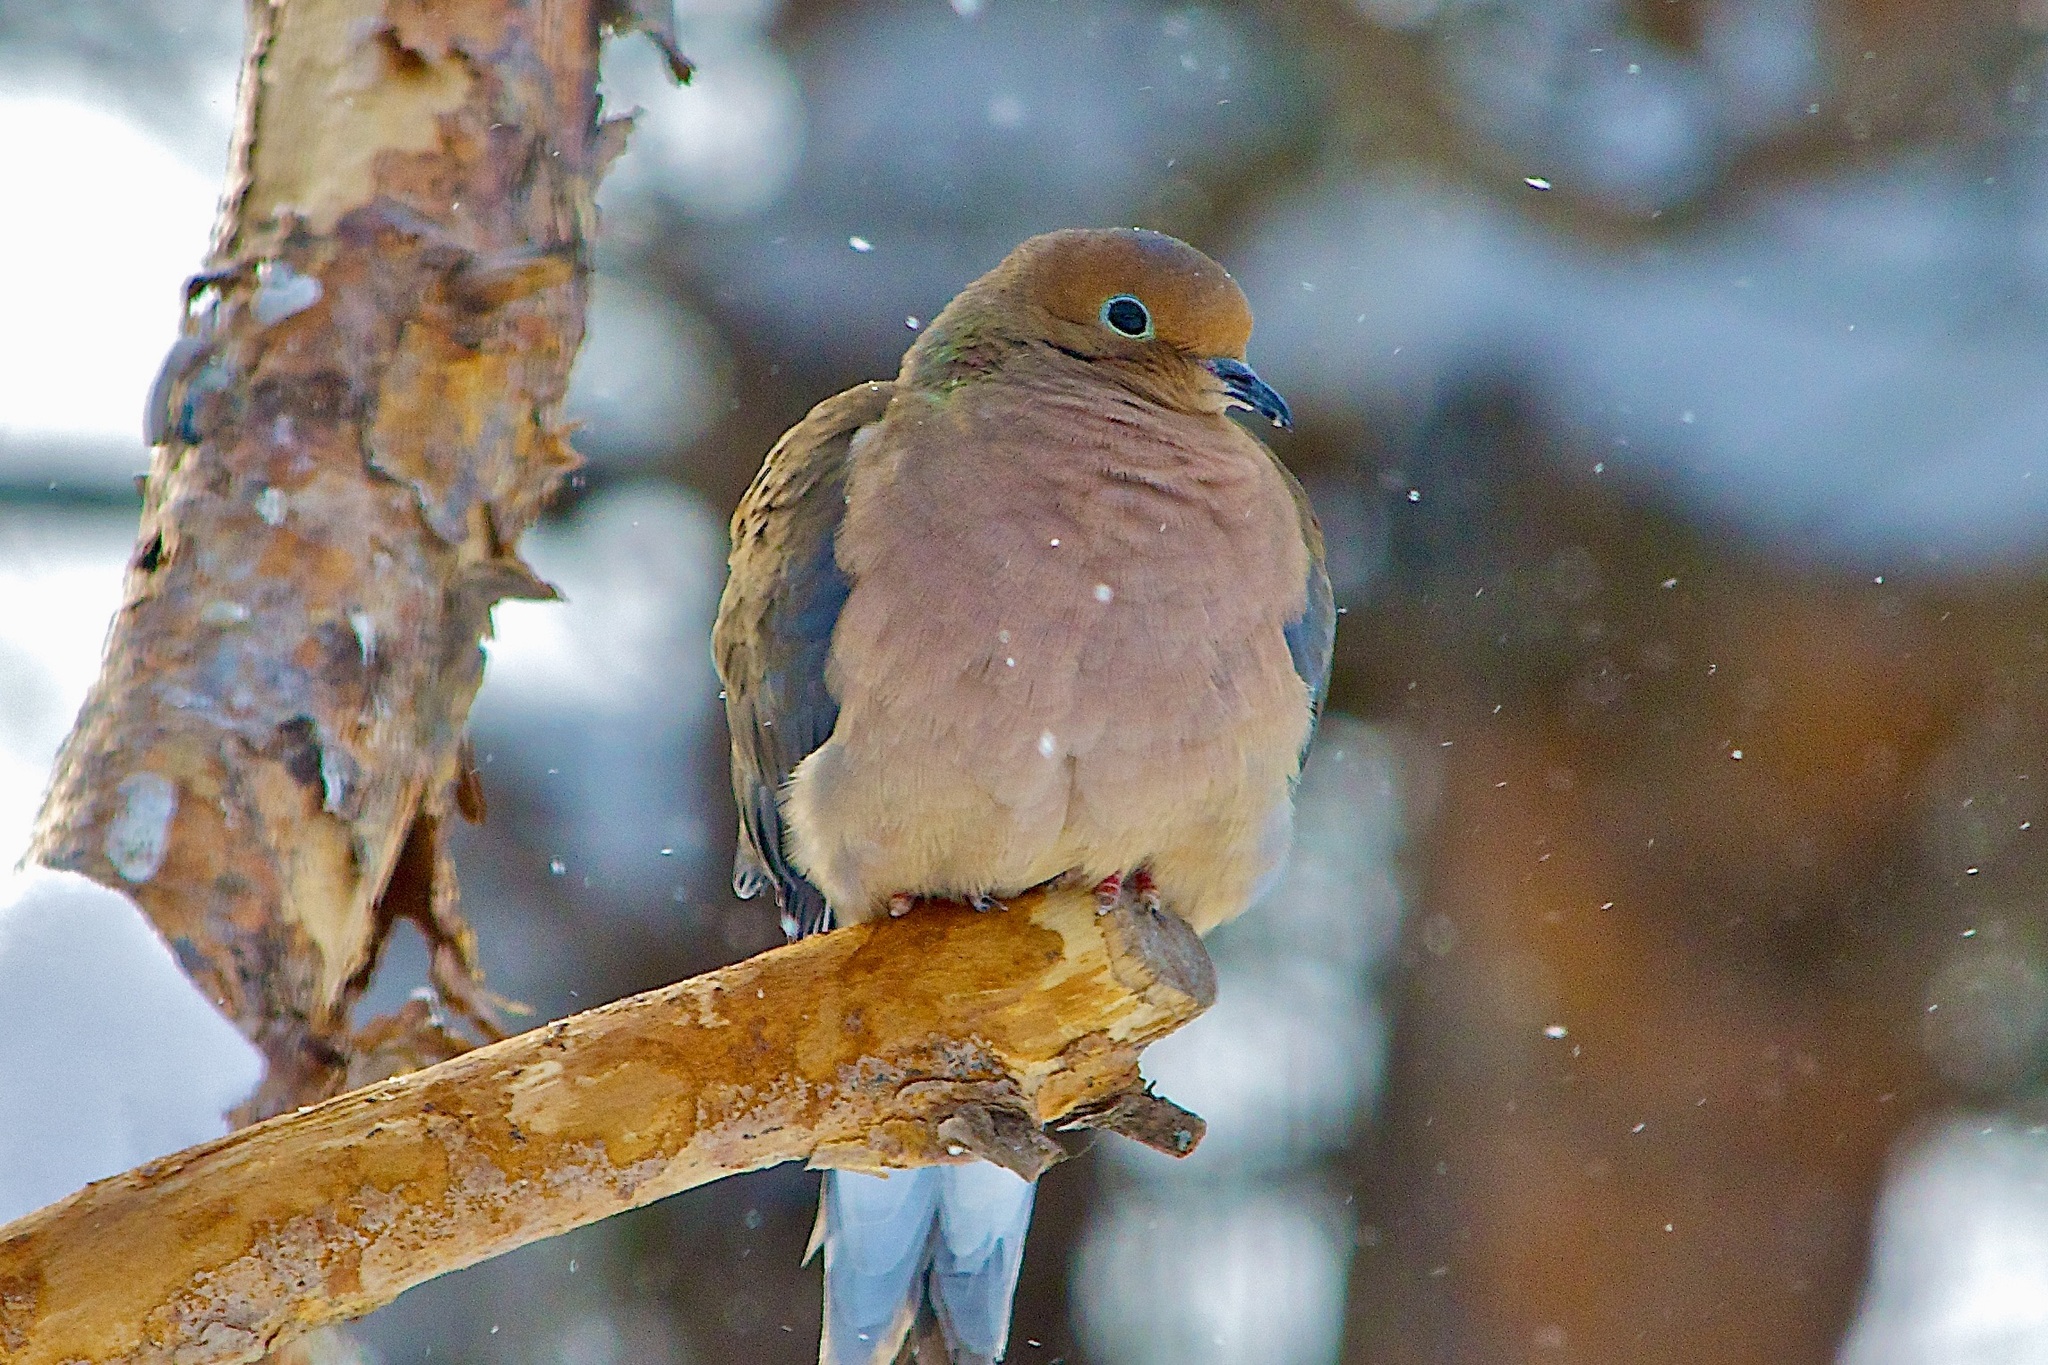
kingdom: Animalia
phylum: Chordata
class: Aves
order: Columbiformes
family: Columbidae
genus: Zenaida
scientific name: Zenaida macroura
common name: Mourning dove
